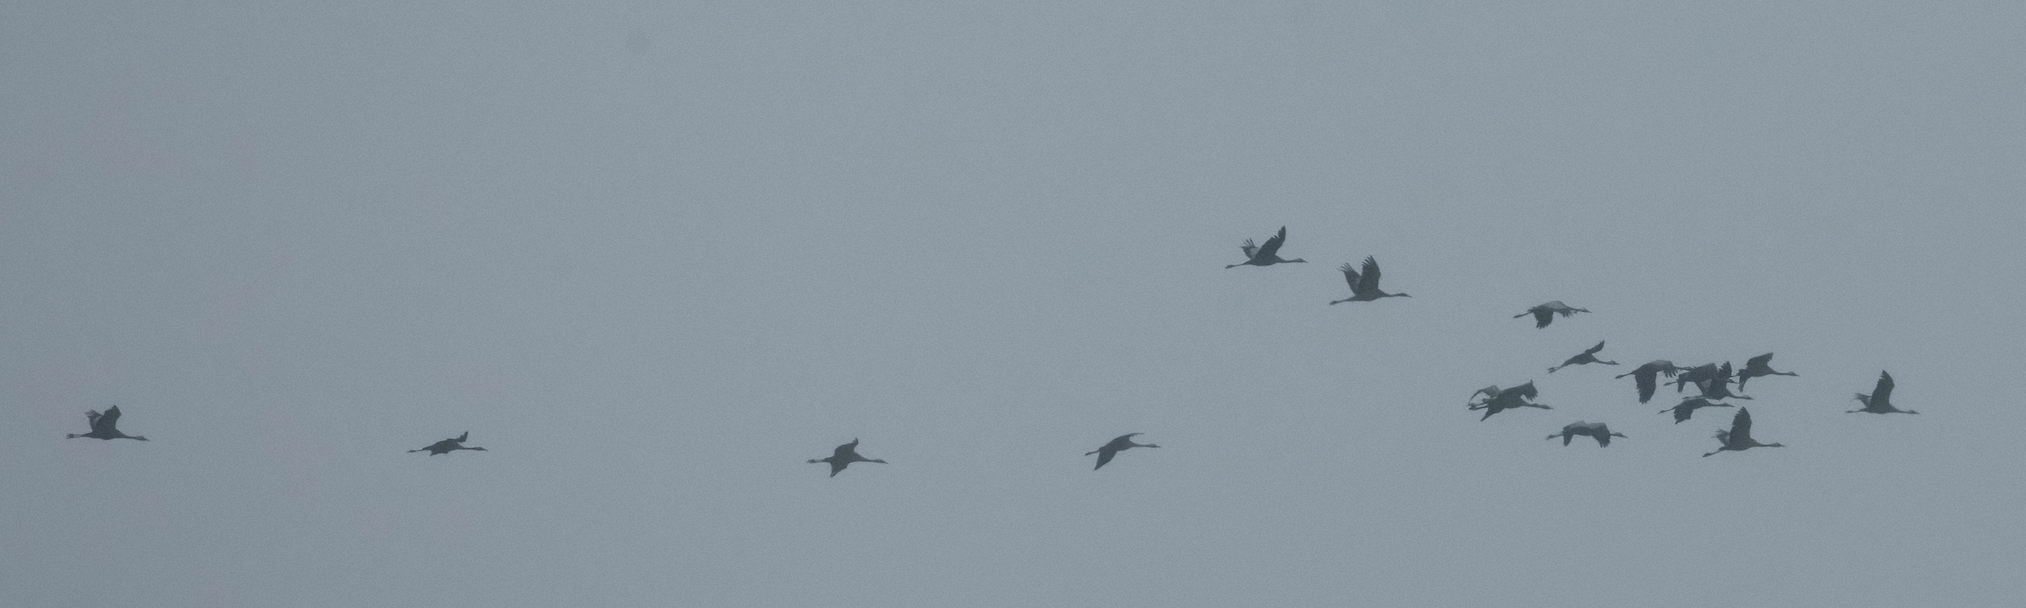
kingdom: Animalia
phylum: Chordata
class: Aves
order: Gruiformes
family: Gruidae
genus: Grus
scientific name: Grus grus
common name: Common crane
